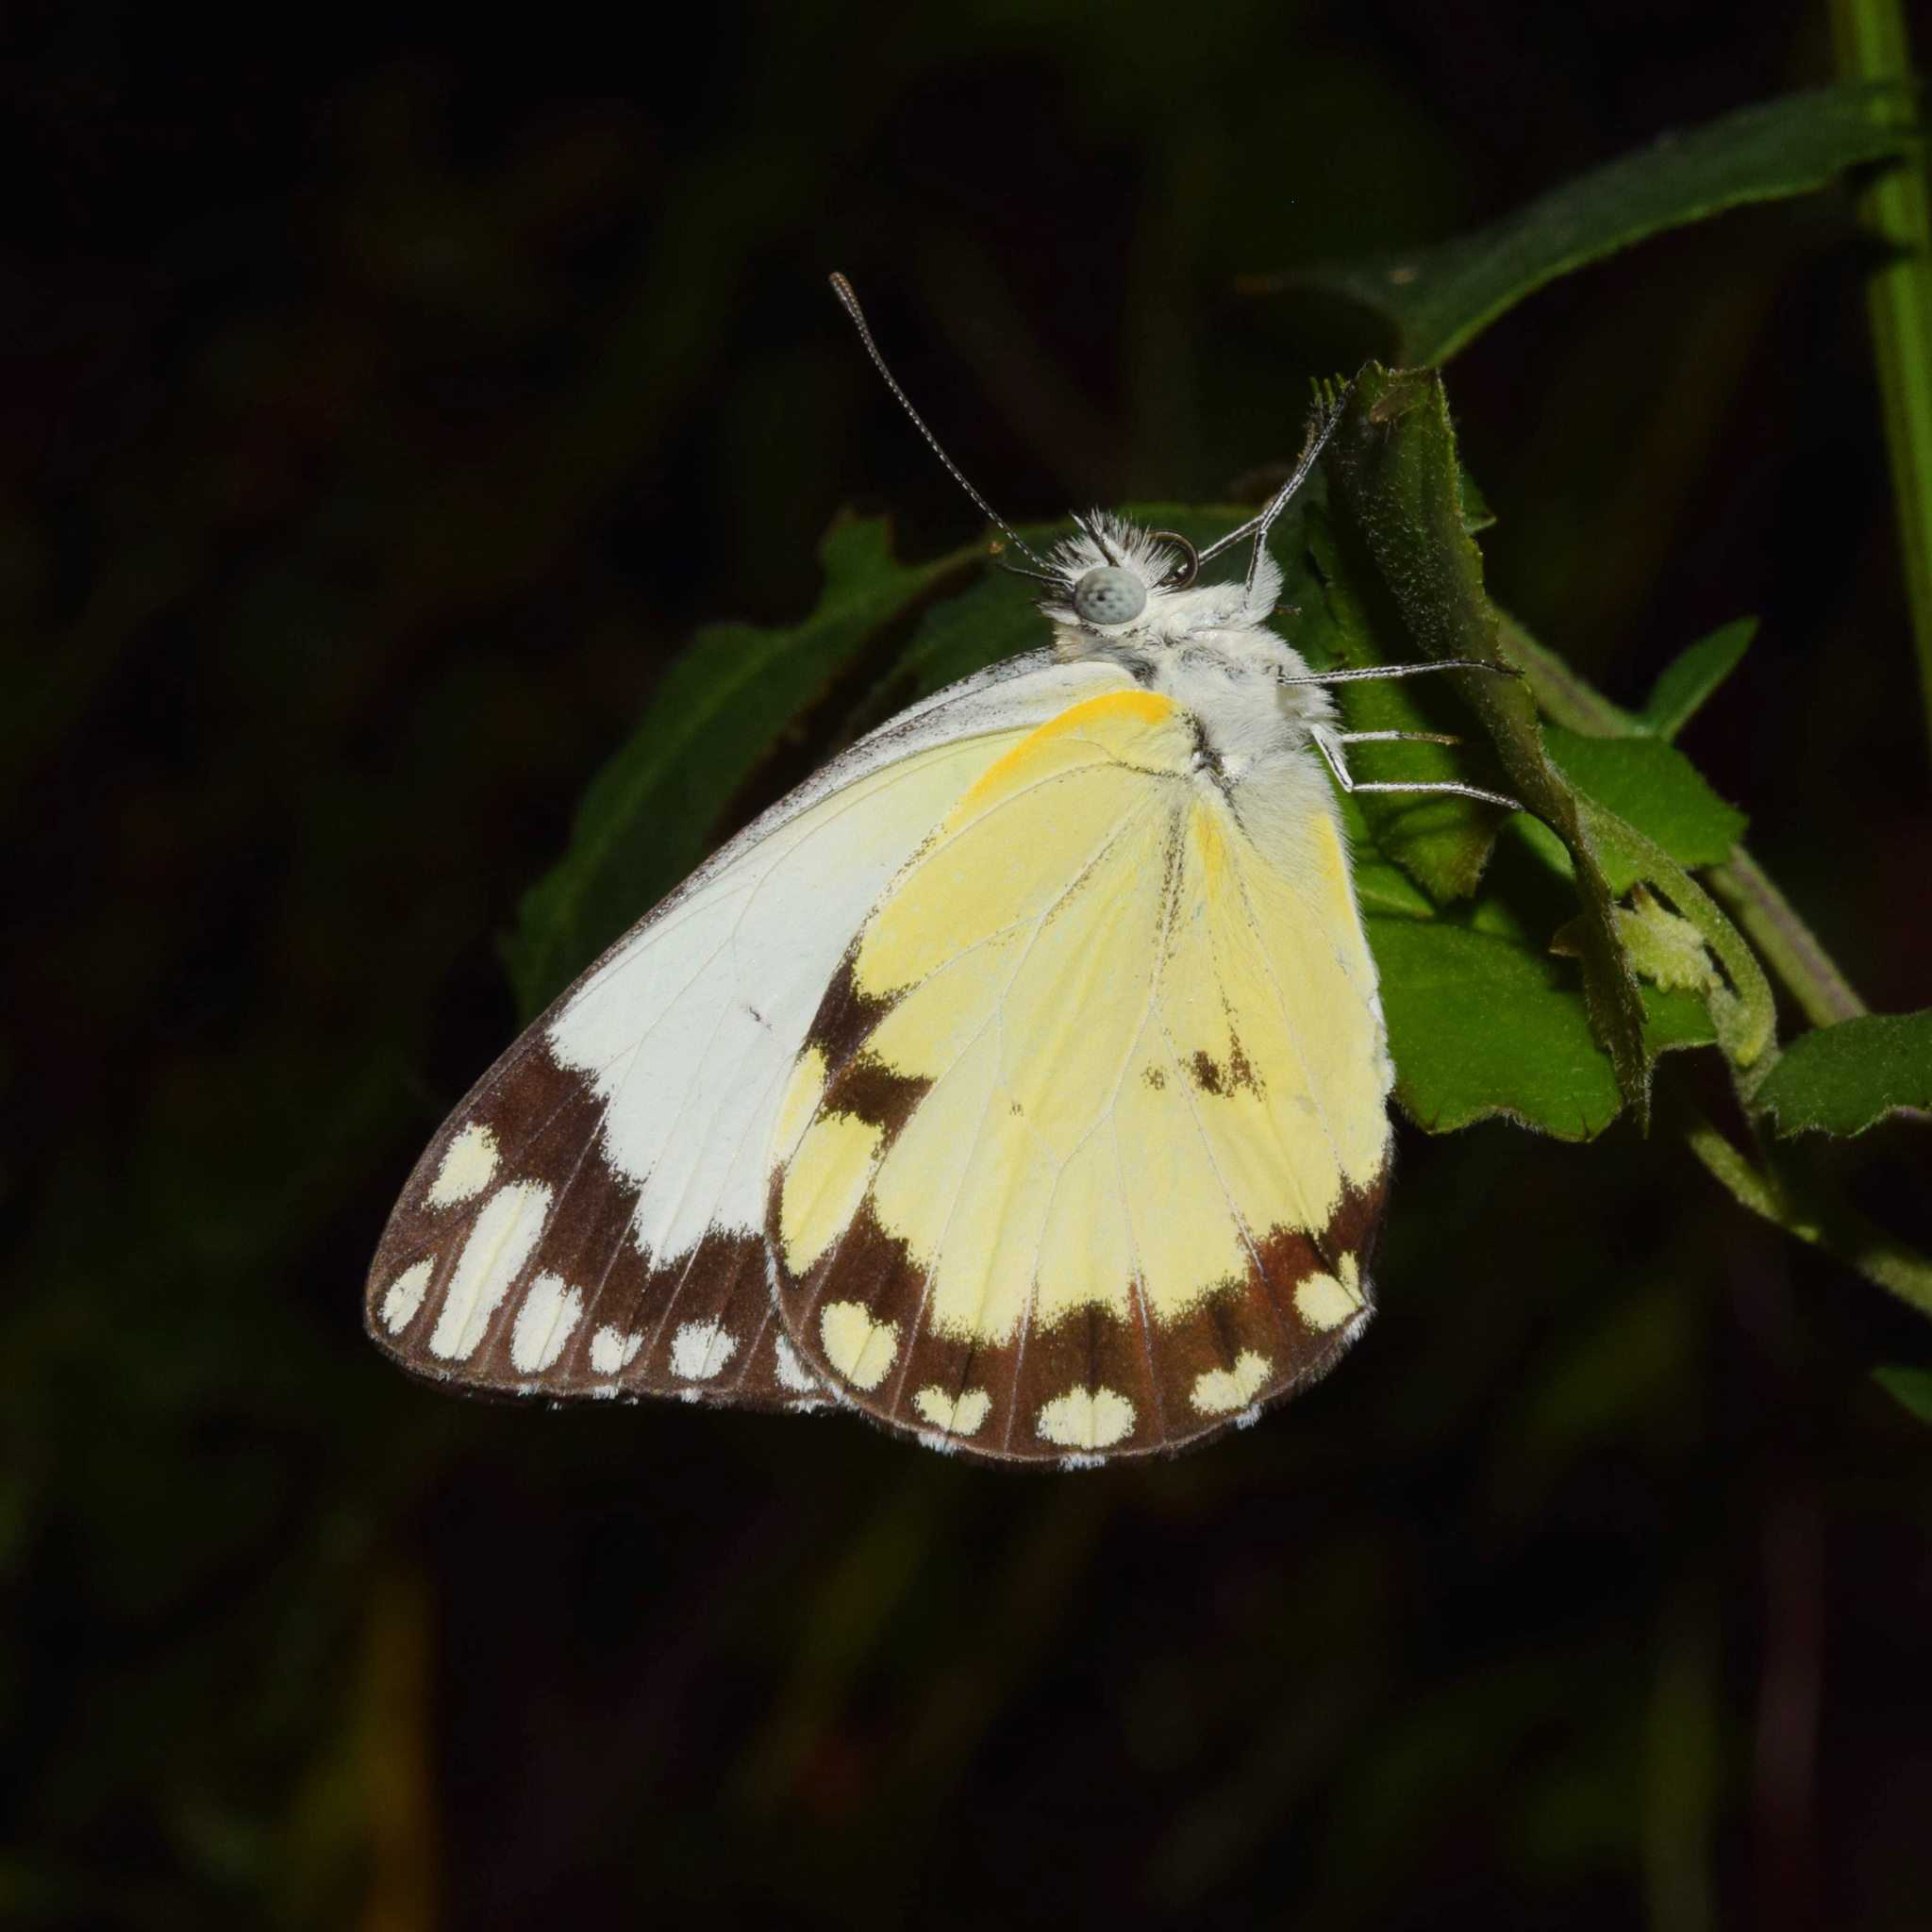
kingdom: Animalia
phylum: Arthropoda
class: Insecta
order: Lepidoptera
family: Pieridae
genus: Belenois
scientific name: Belenois creona
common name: African caper white
